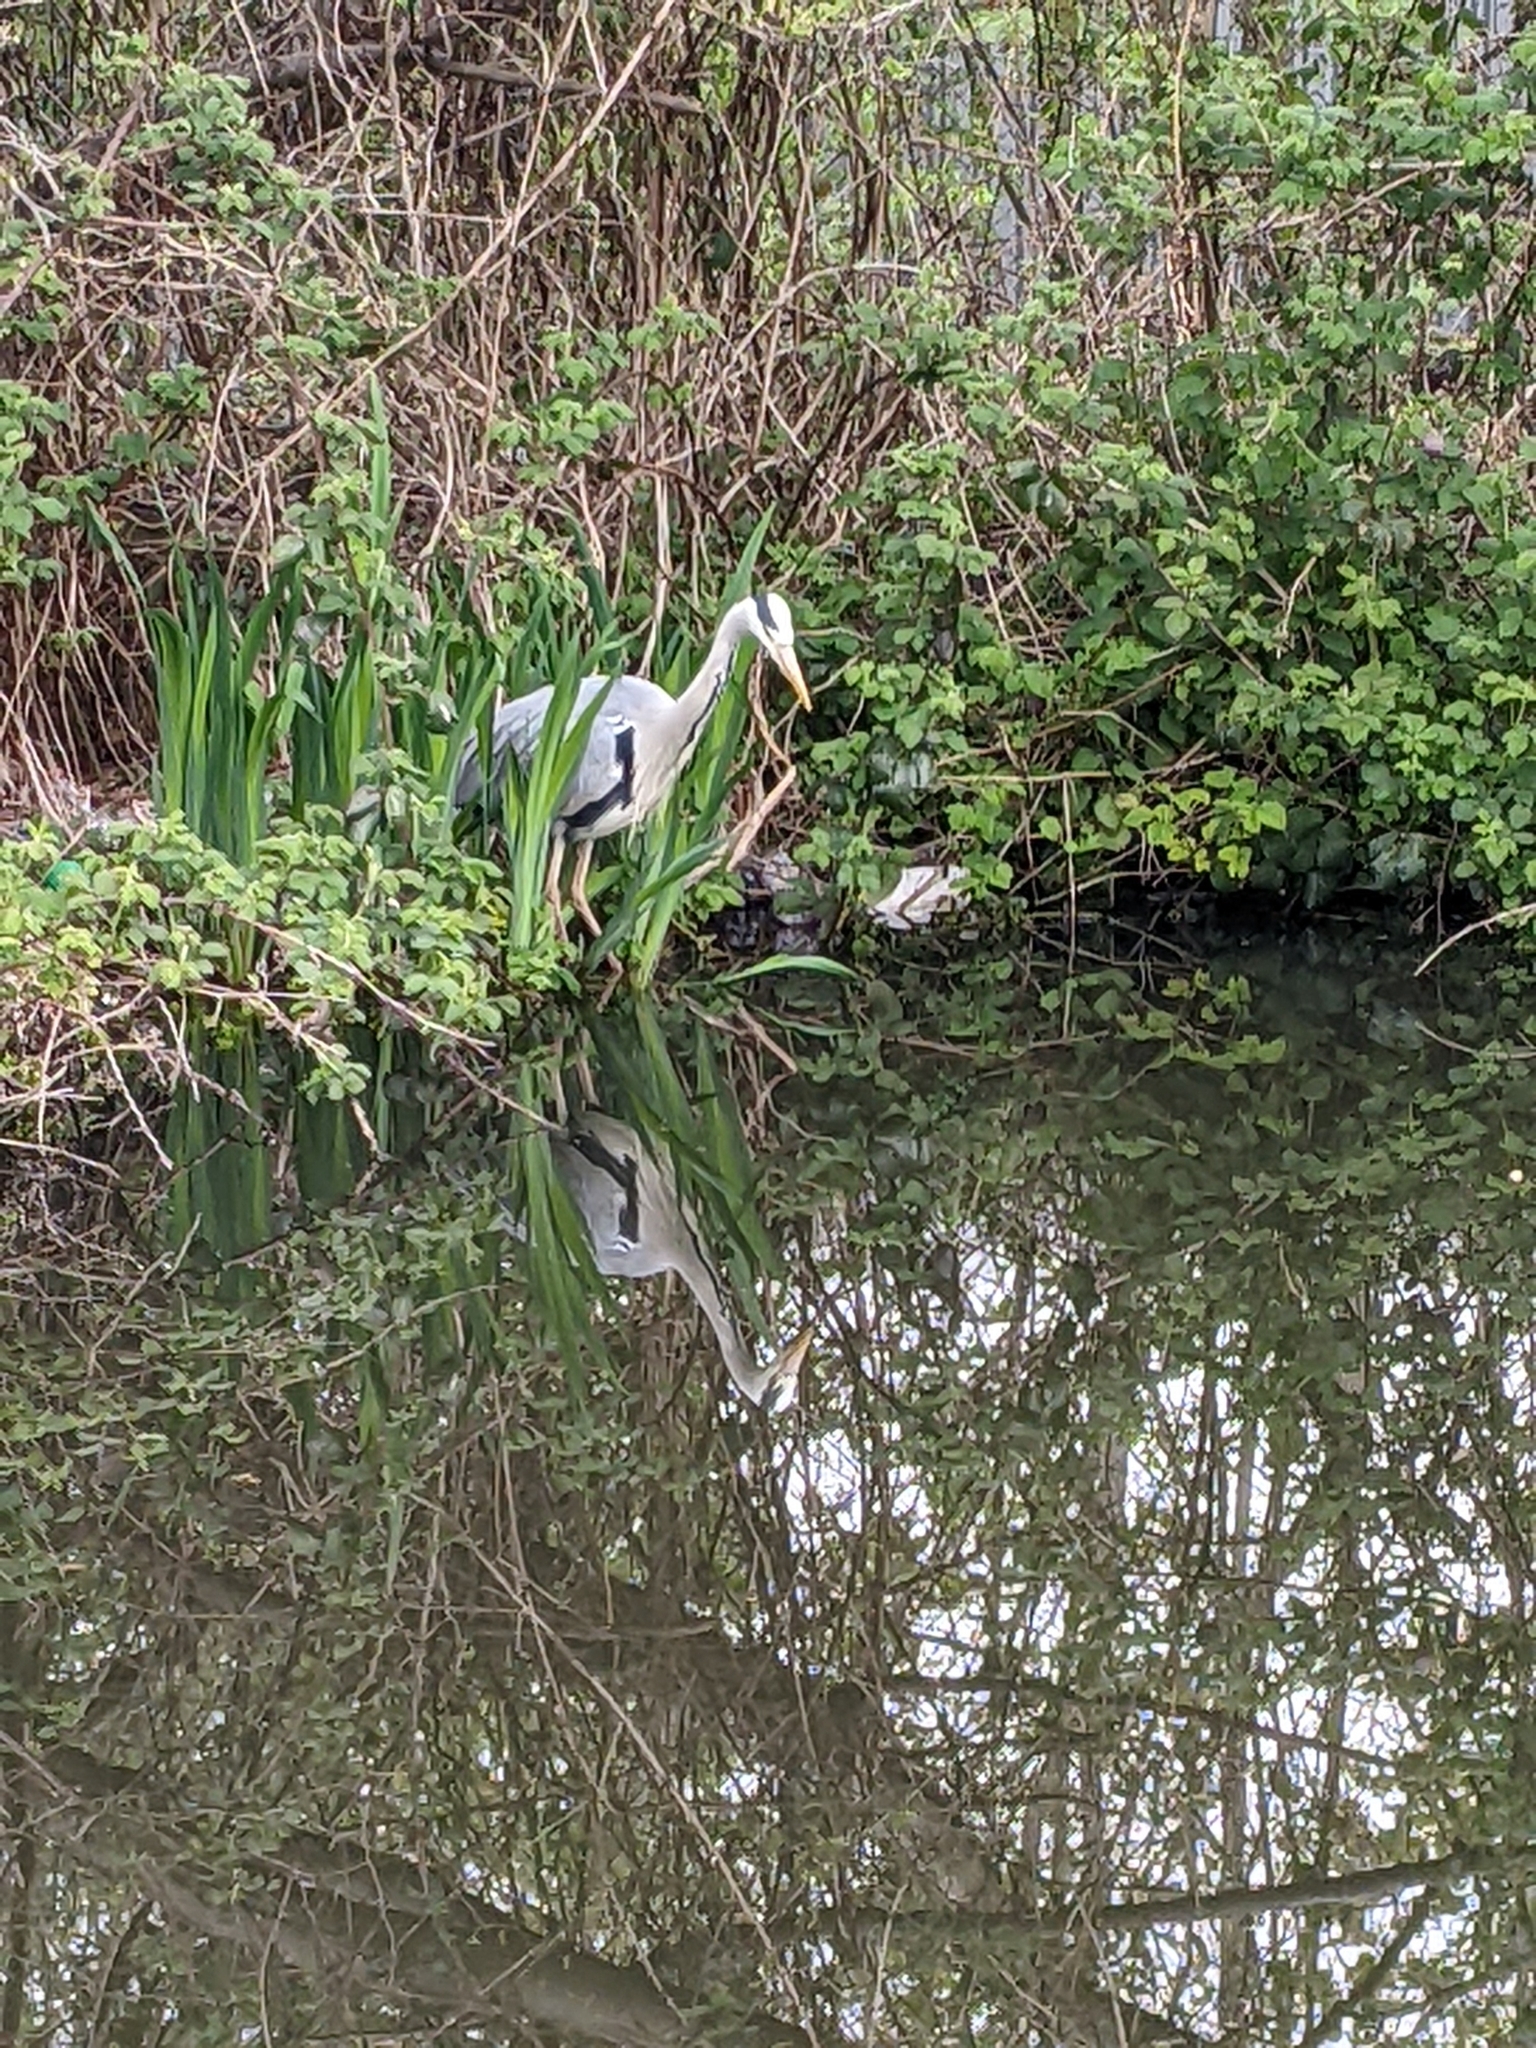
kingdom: Animalia
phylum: Chordata
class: Aves
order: Pelecaniformes
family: Ardeidae
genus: Ardea
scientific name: Ardea cinerea
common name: Grey heron
